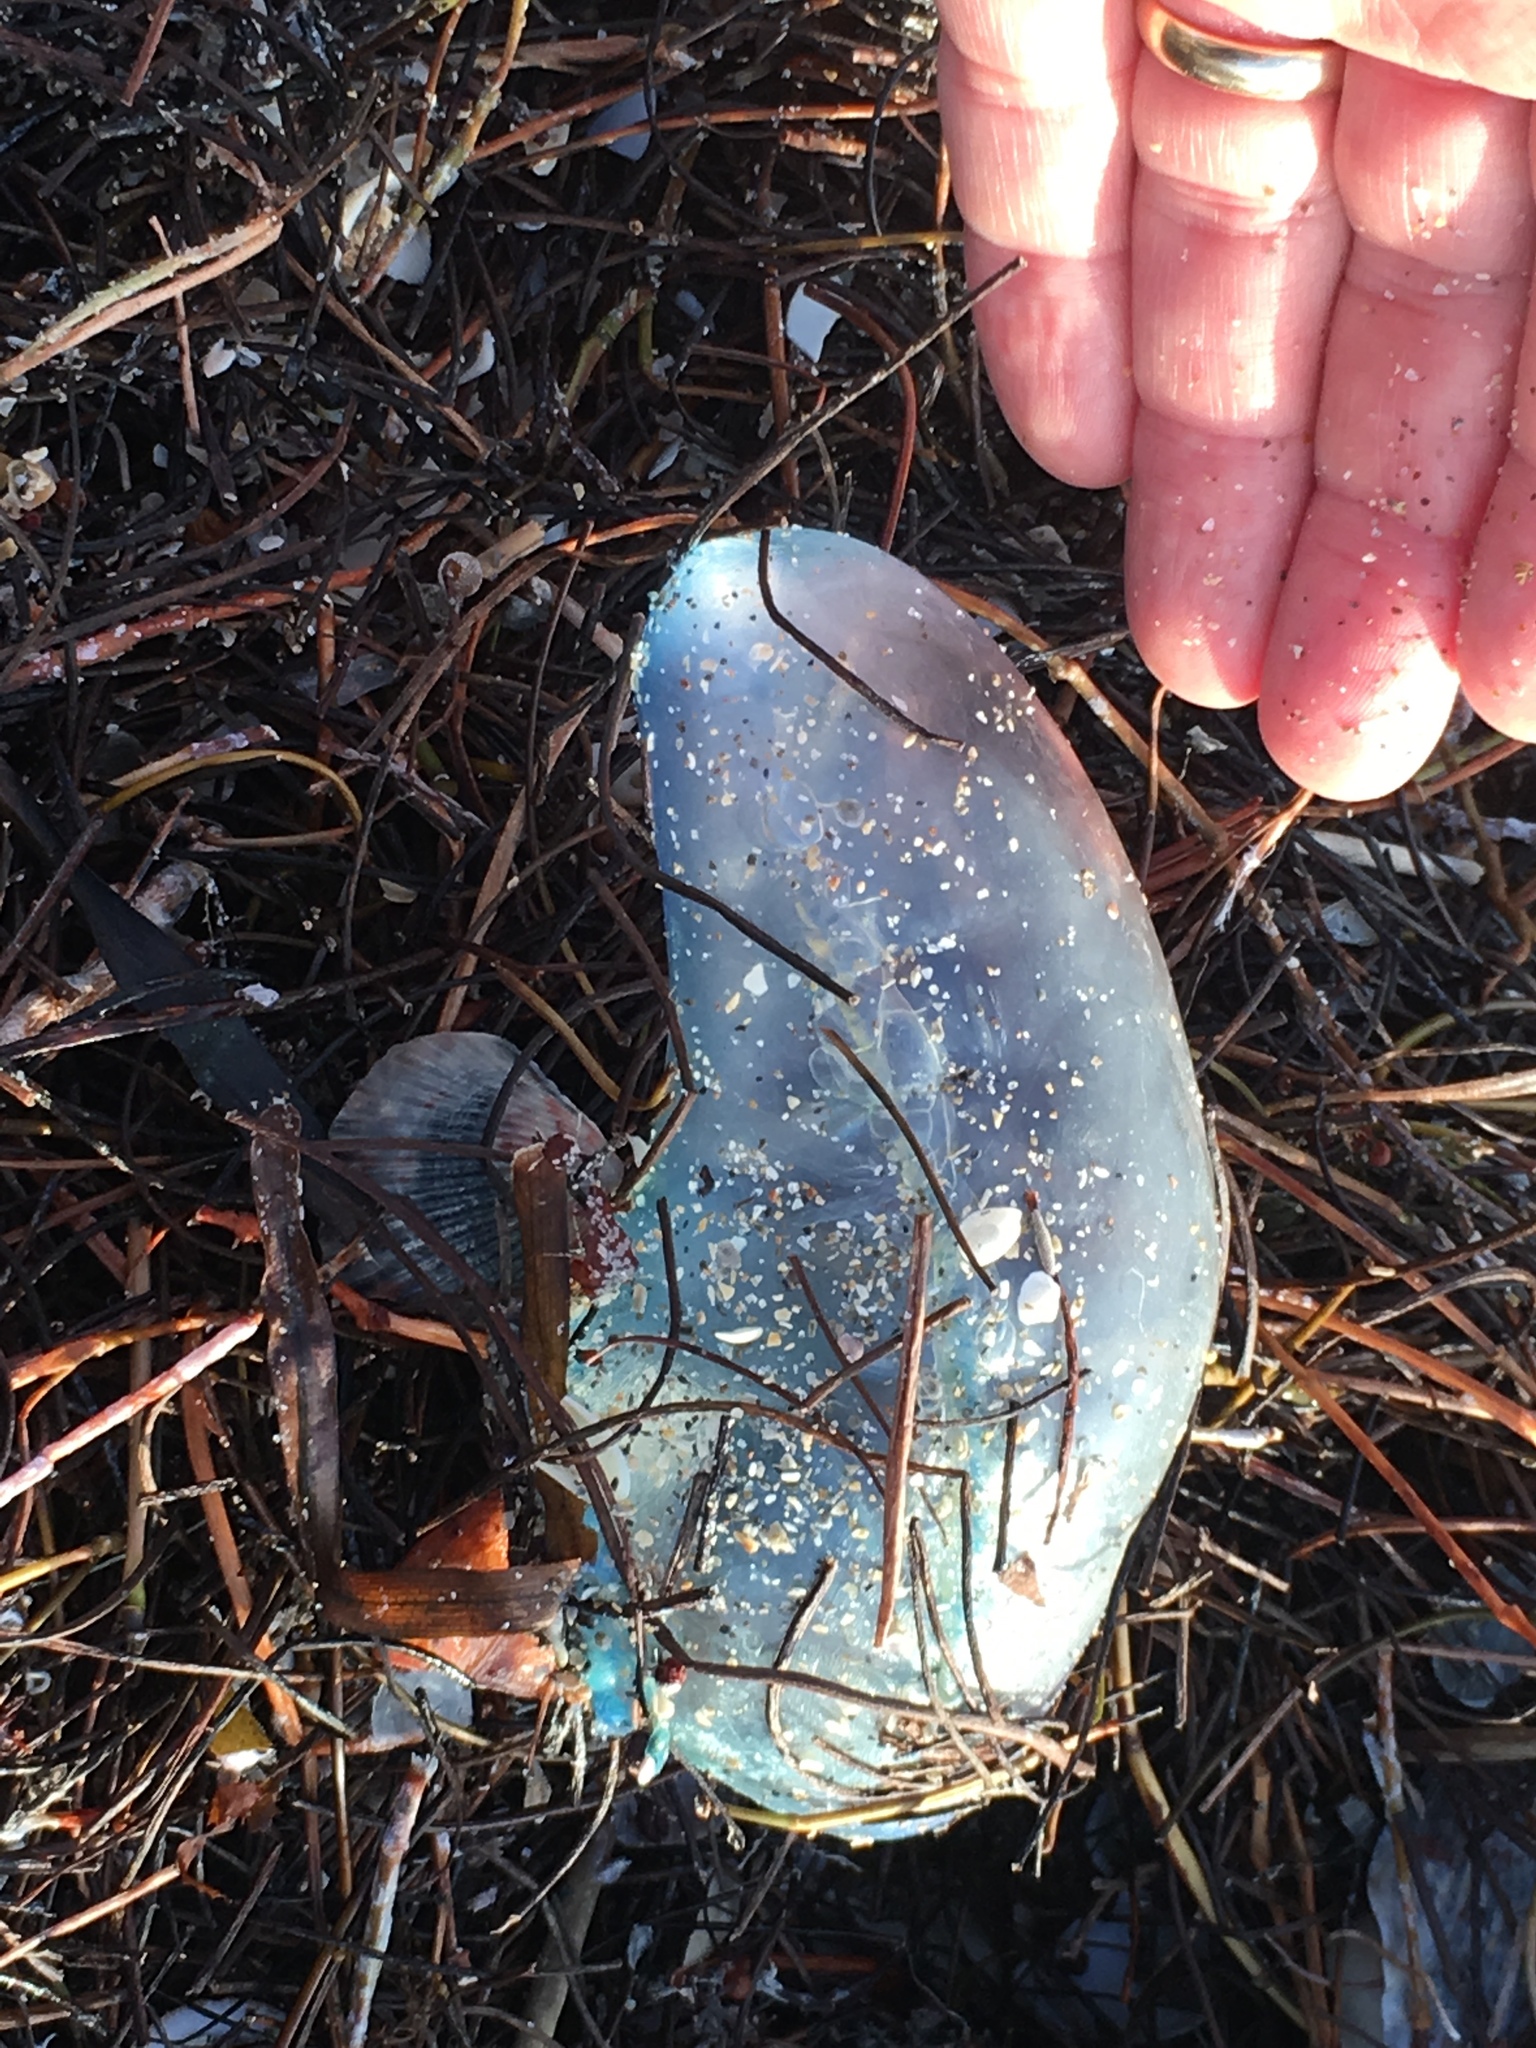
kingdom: Animalia
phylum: Cnidaria
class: Hydrozoa
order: Siphonophorae
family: Physaliidae
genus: Physalia
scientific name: Physalia physalis
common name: Portuguese man-of-war
